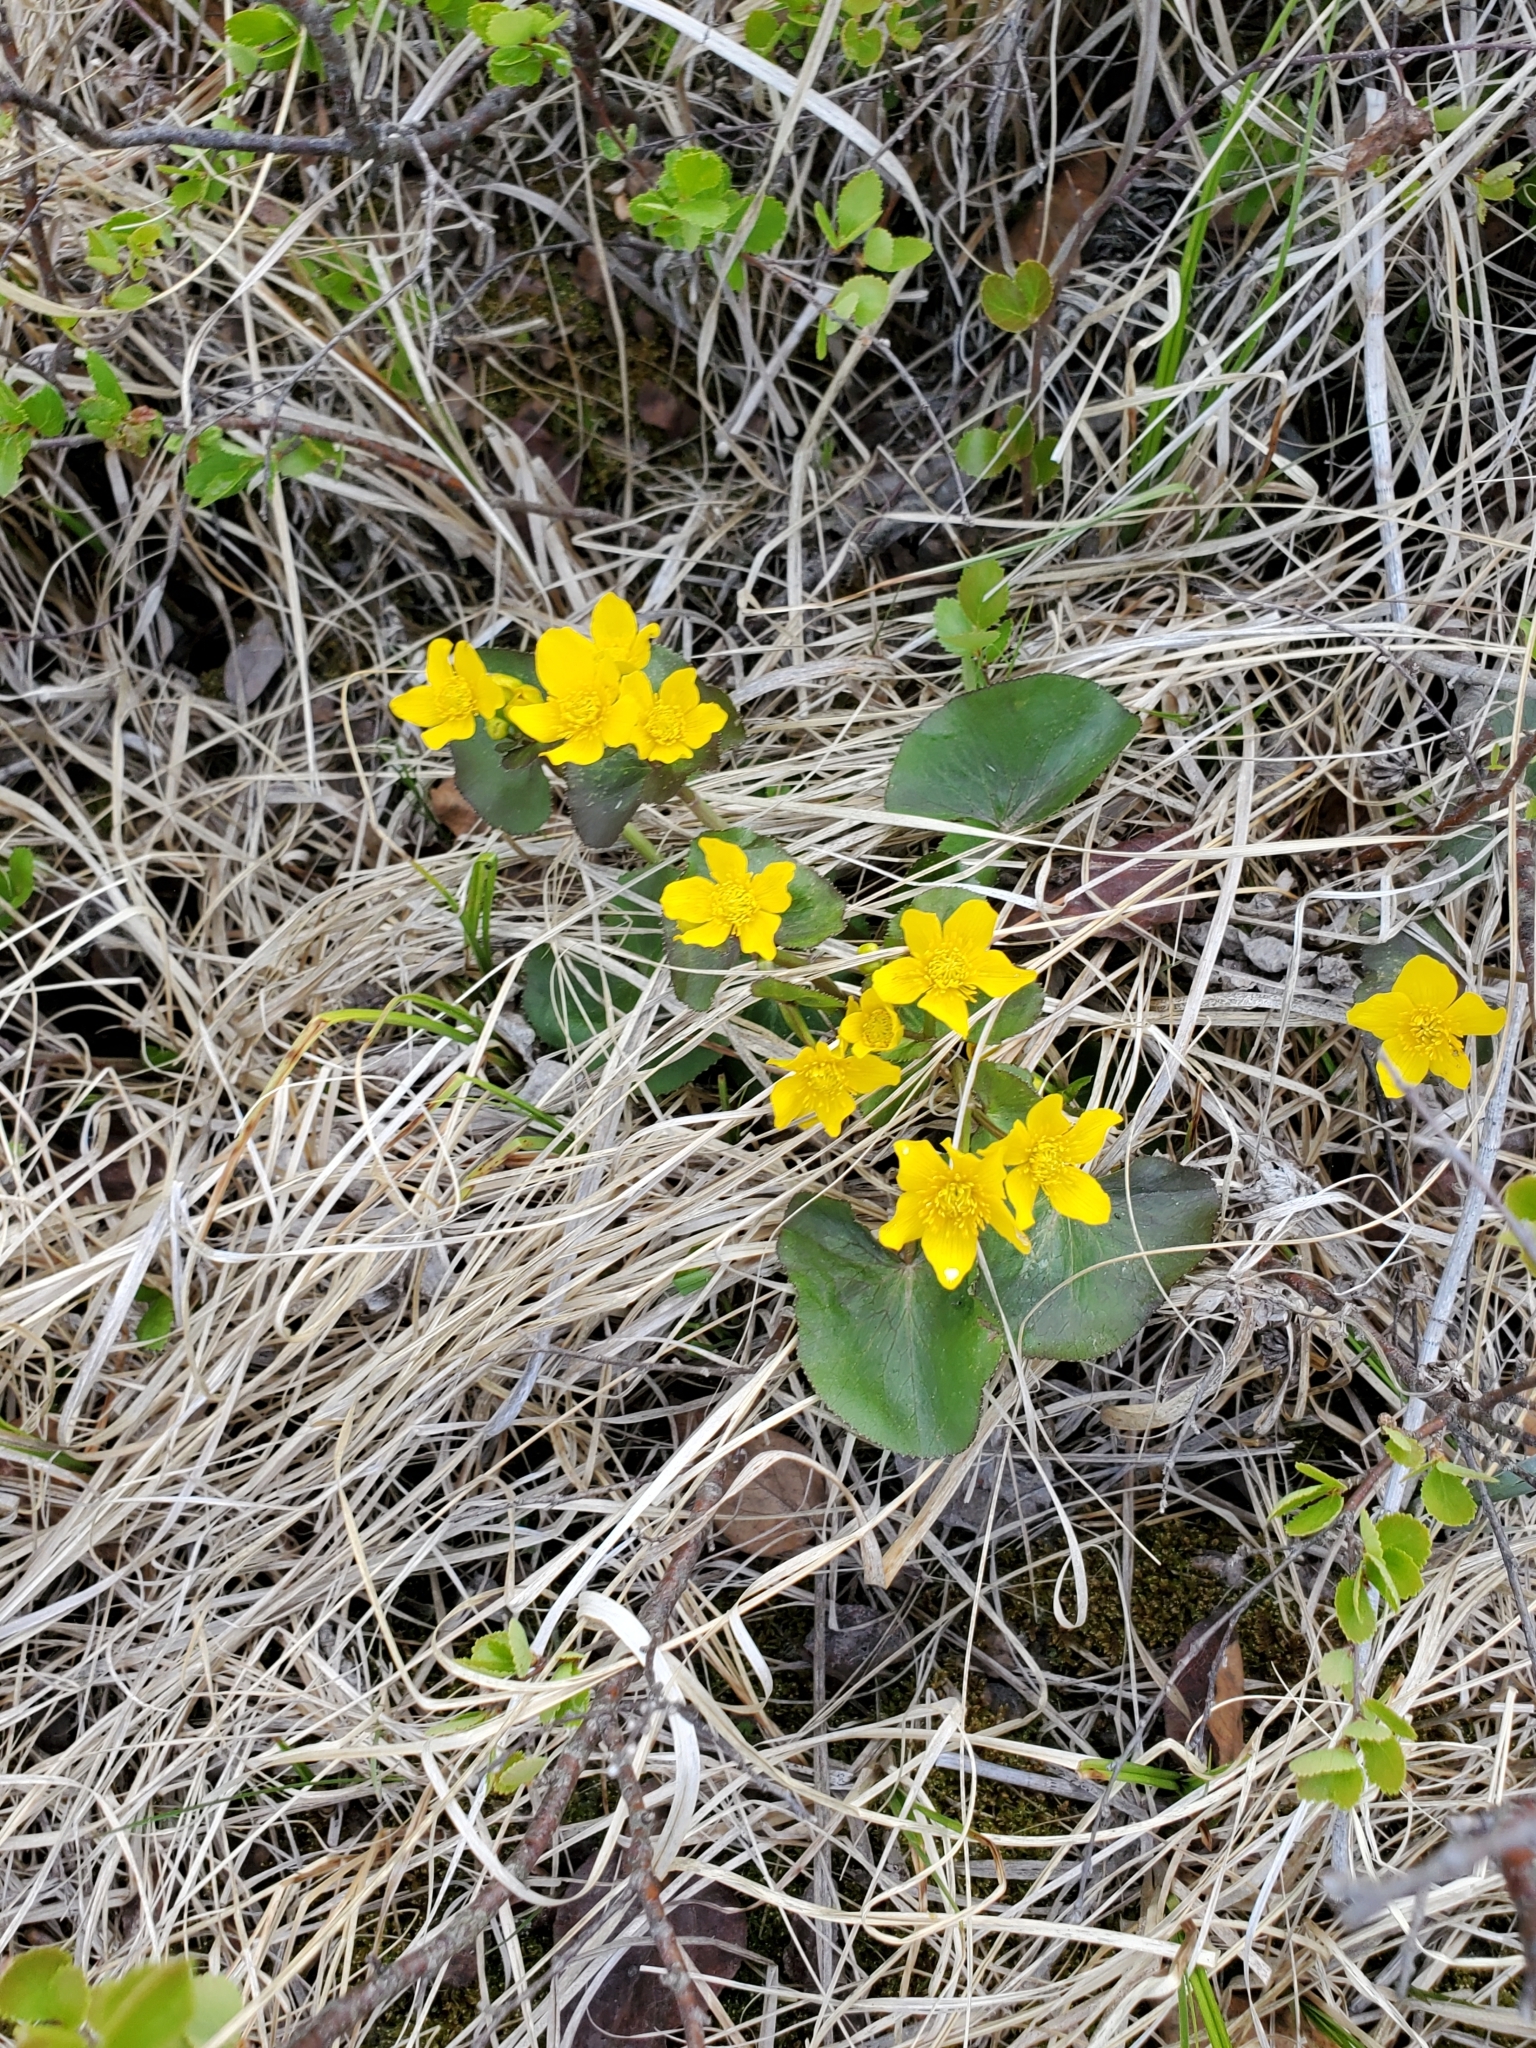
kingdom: Plantae
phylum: Tracheophyta
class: Magnoliopsida
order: Ranunculales
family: Ranunculaceae
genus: Caltha
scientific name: Caltha palustris
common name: Marsh marigold
